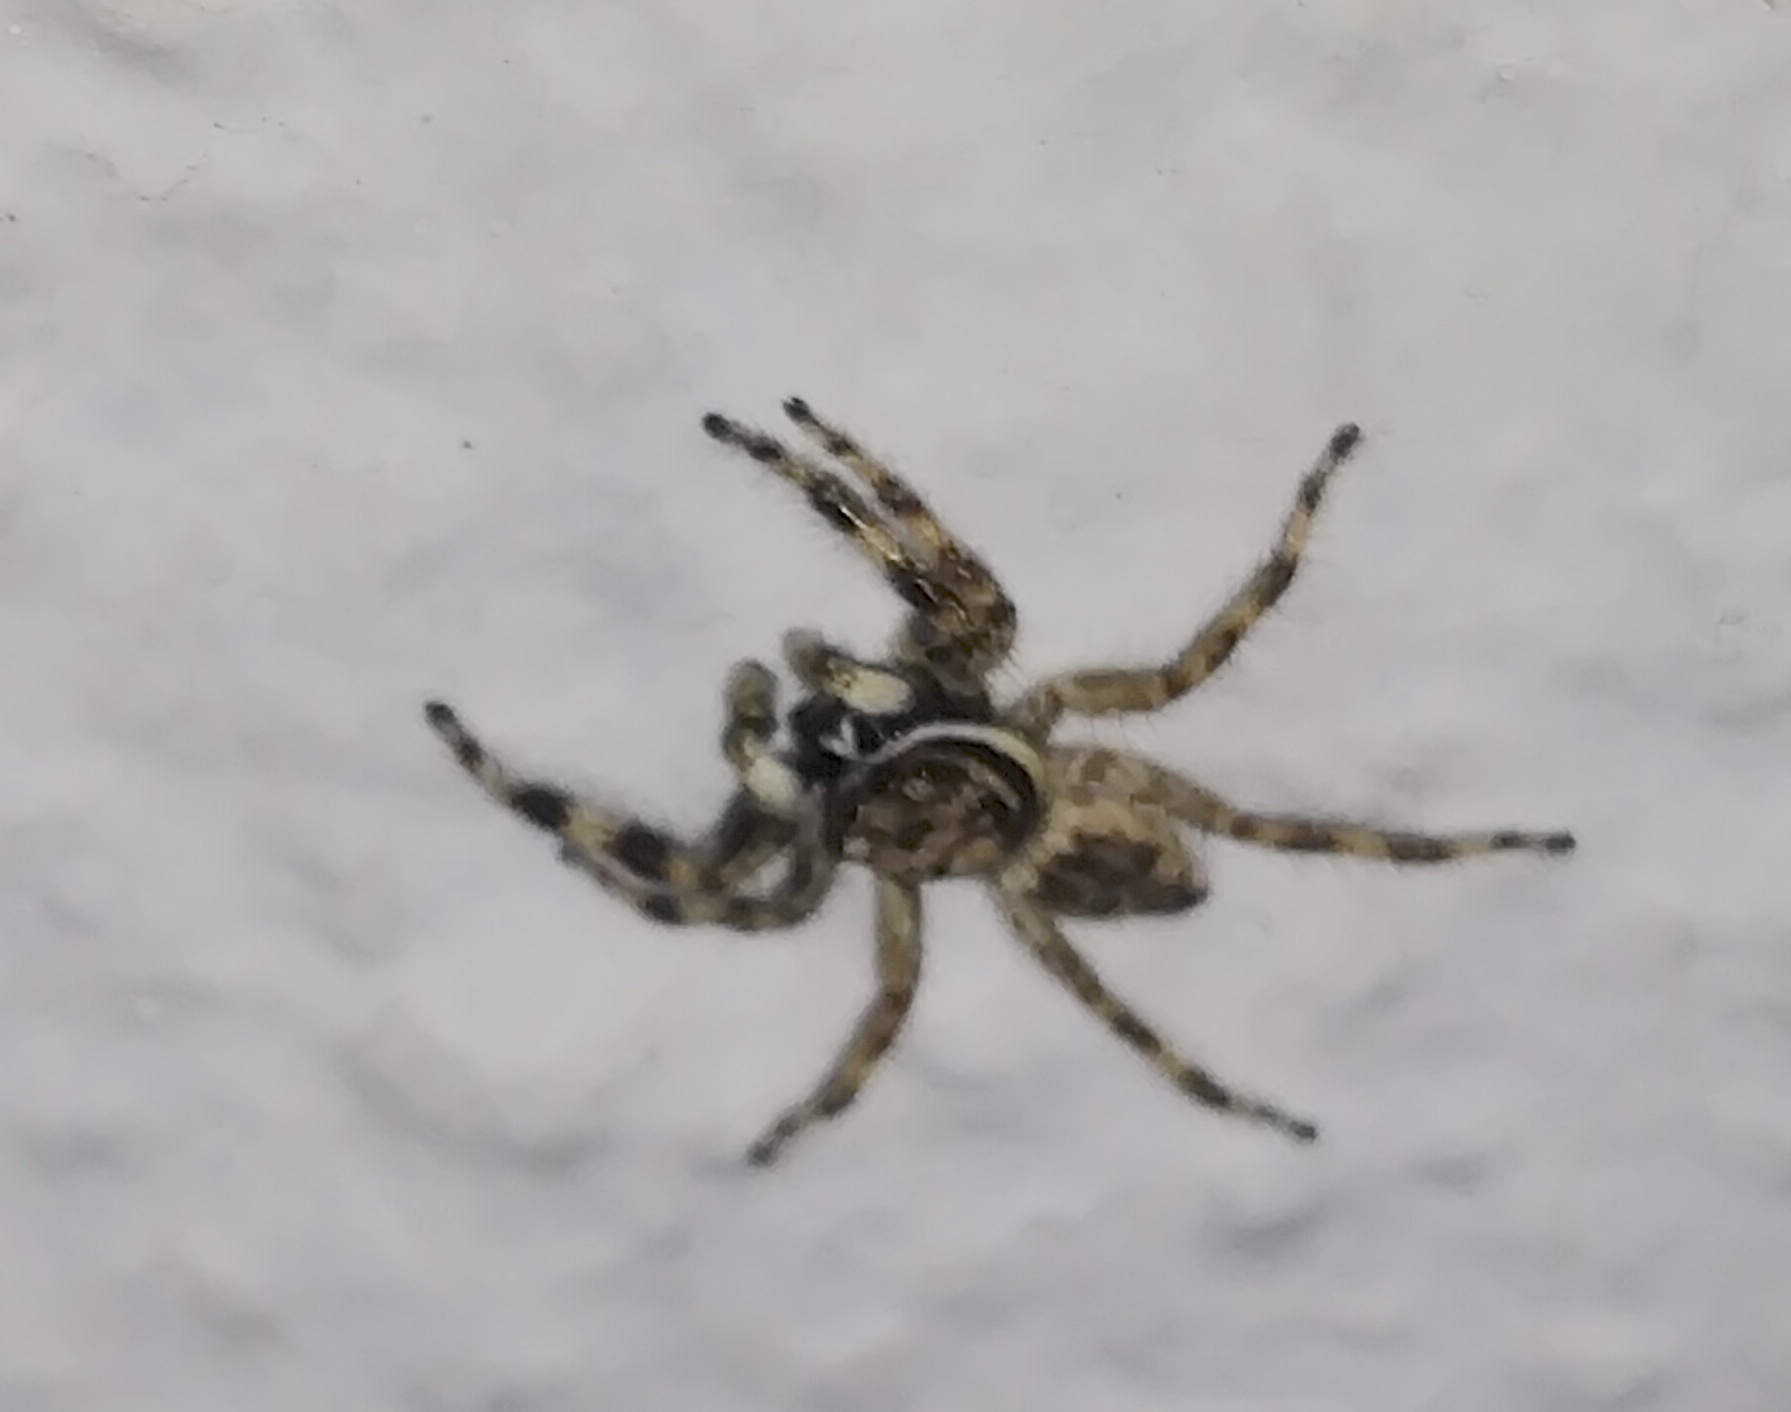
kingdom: Animalia
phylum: Arthropoda
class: Arachnida
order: Araneae
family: Salticidae
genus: Menemerus
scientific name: Menemerus bivittatus
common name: Gray wall jumper
